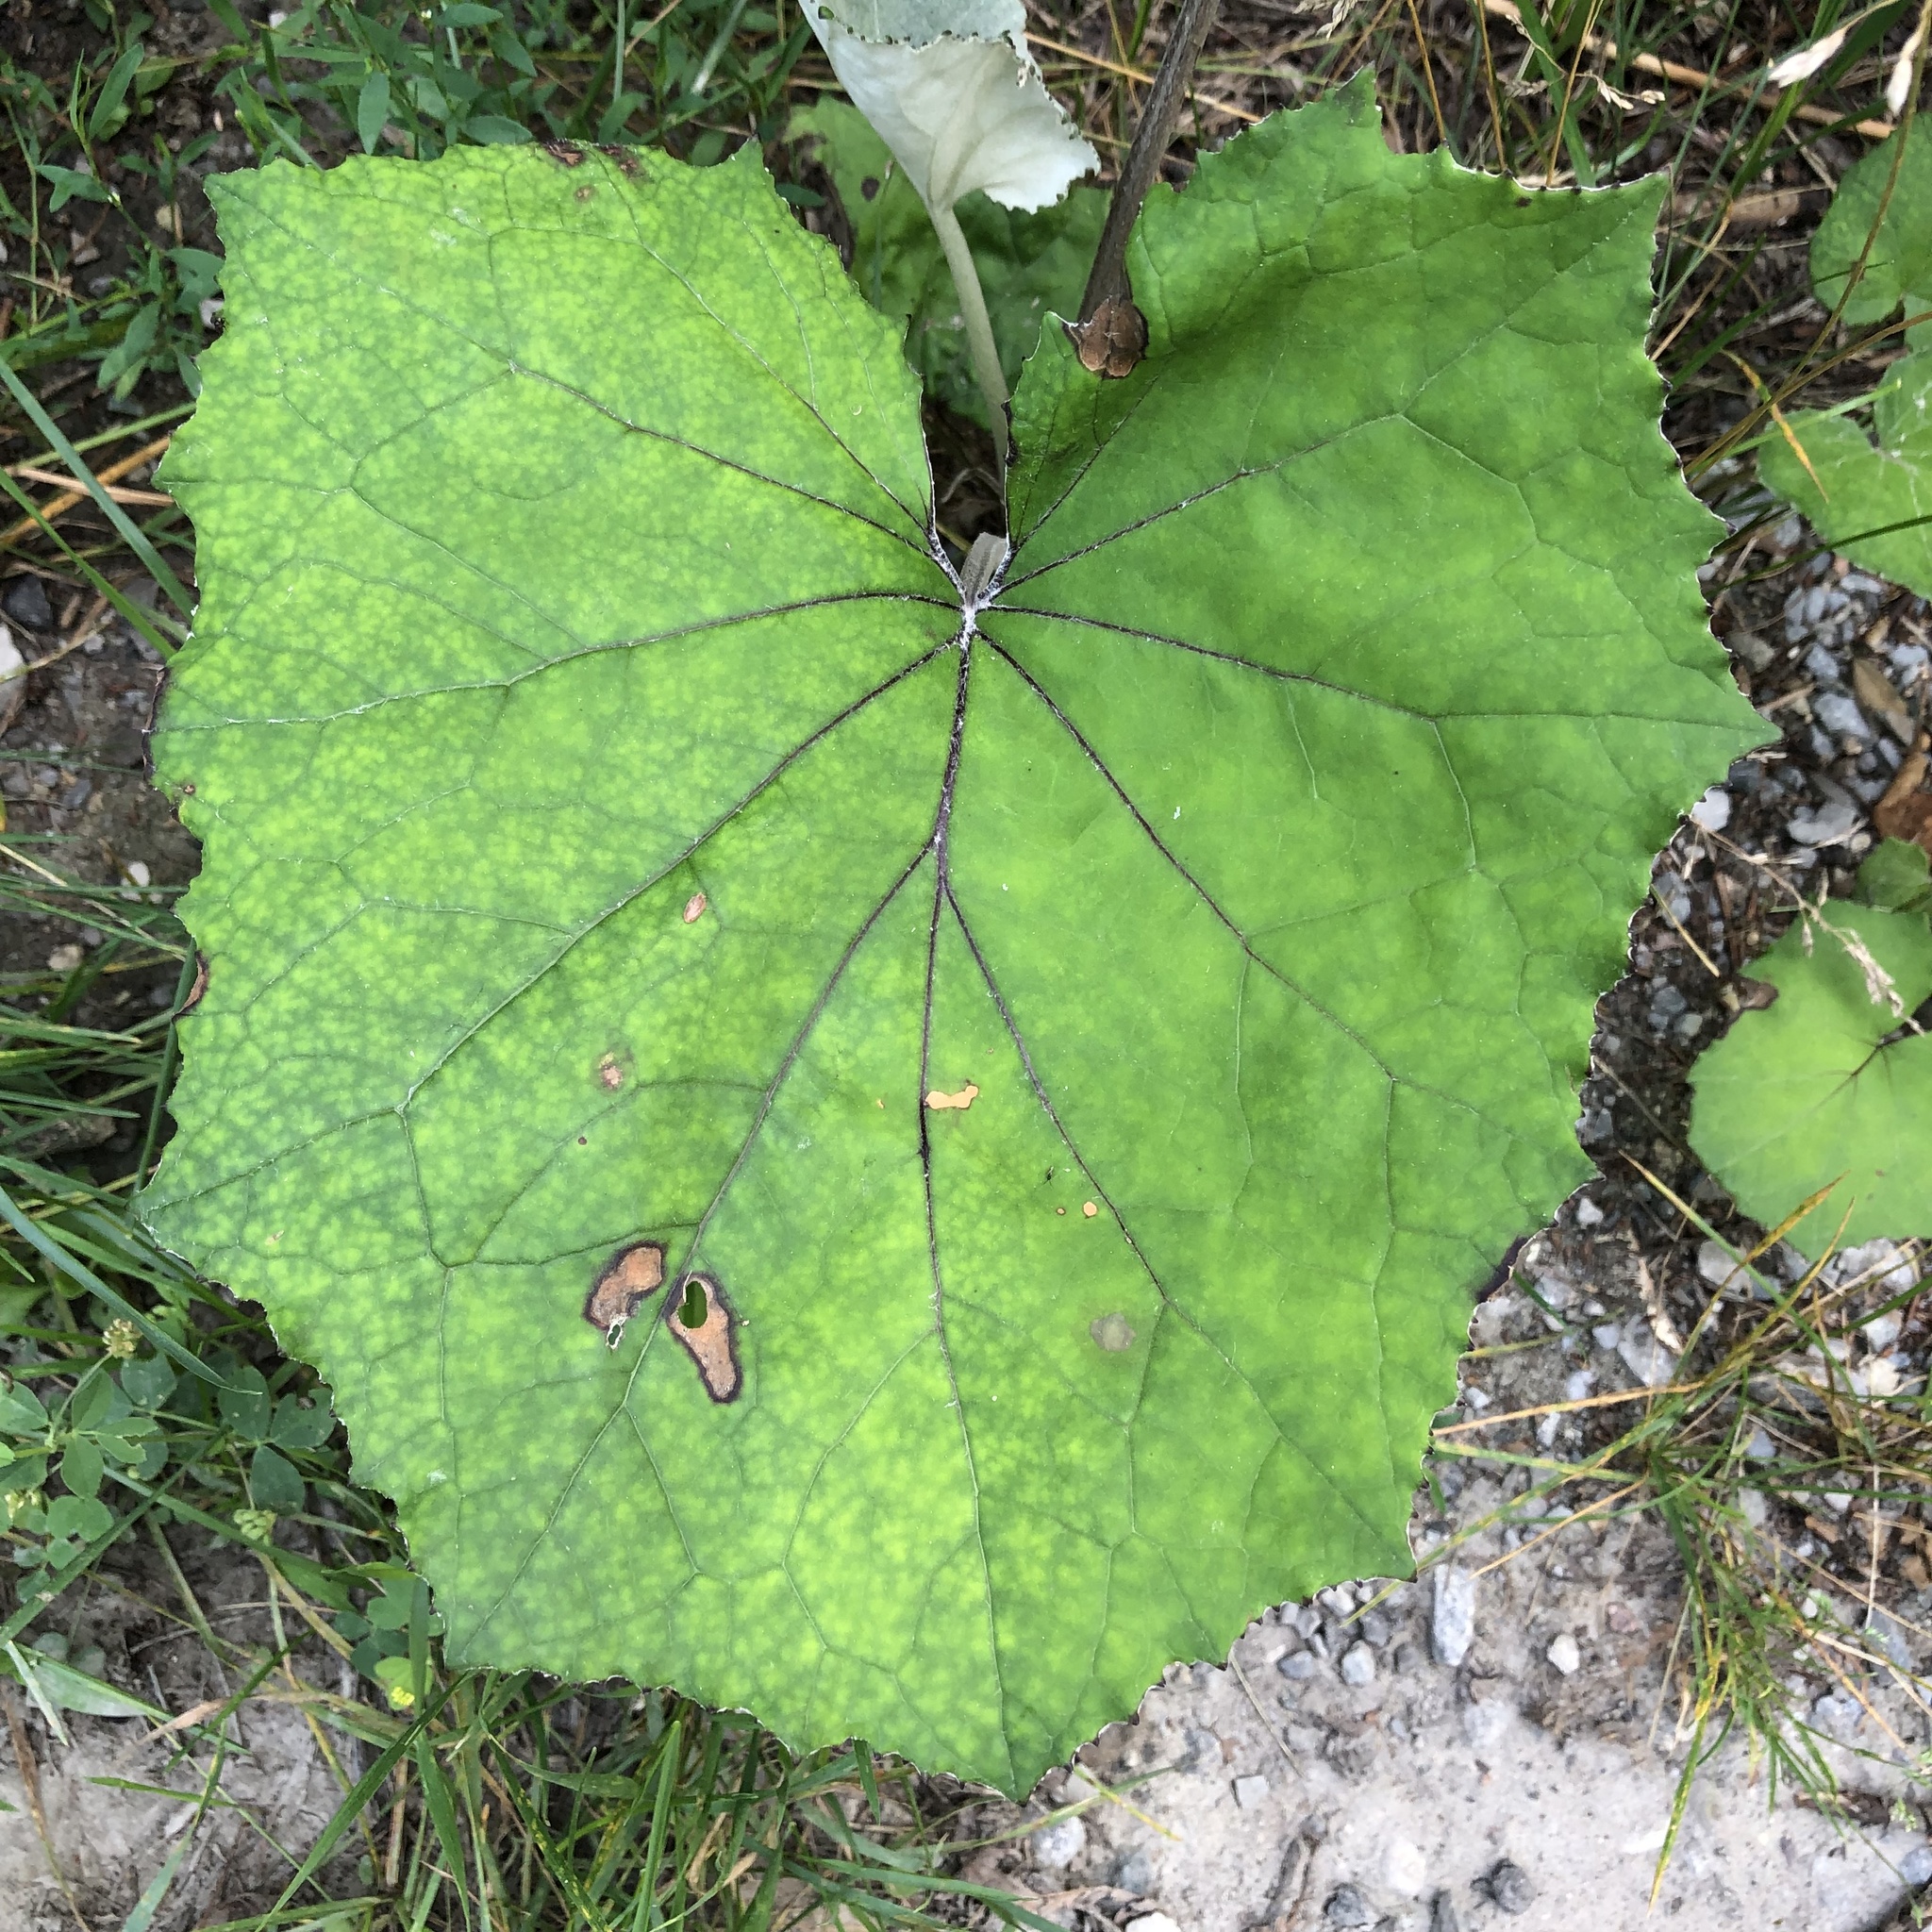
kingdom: Plantae
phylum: Tracheophyta
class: Magnoliopsida
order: Asterales
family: Asteraceae
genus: Tussilago
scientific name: Tussilago farfara
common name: Coltsfoot
